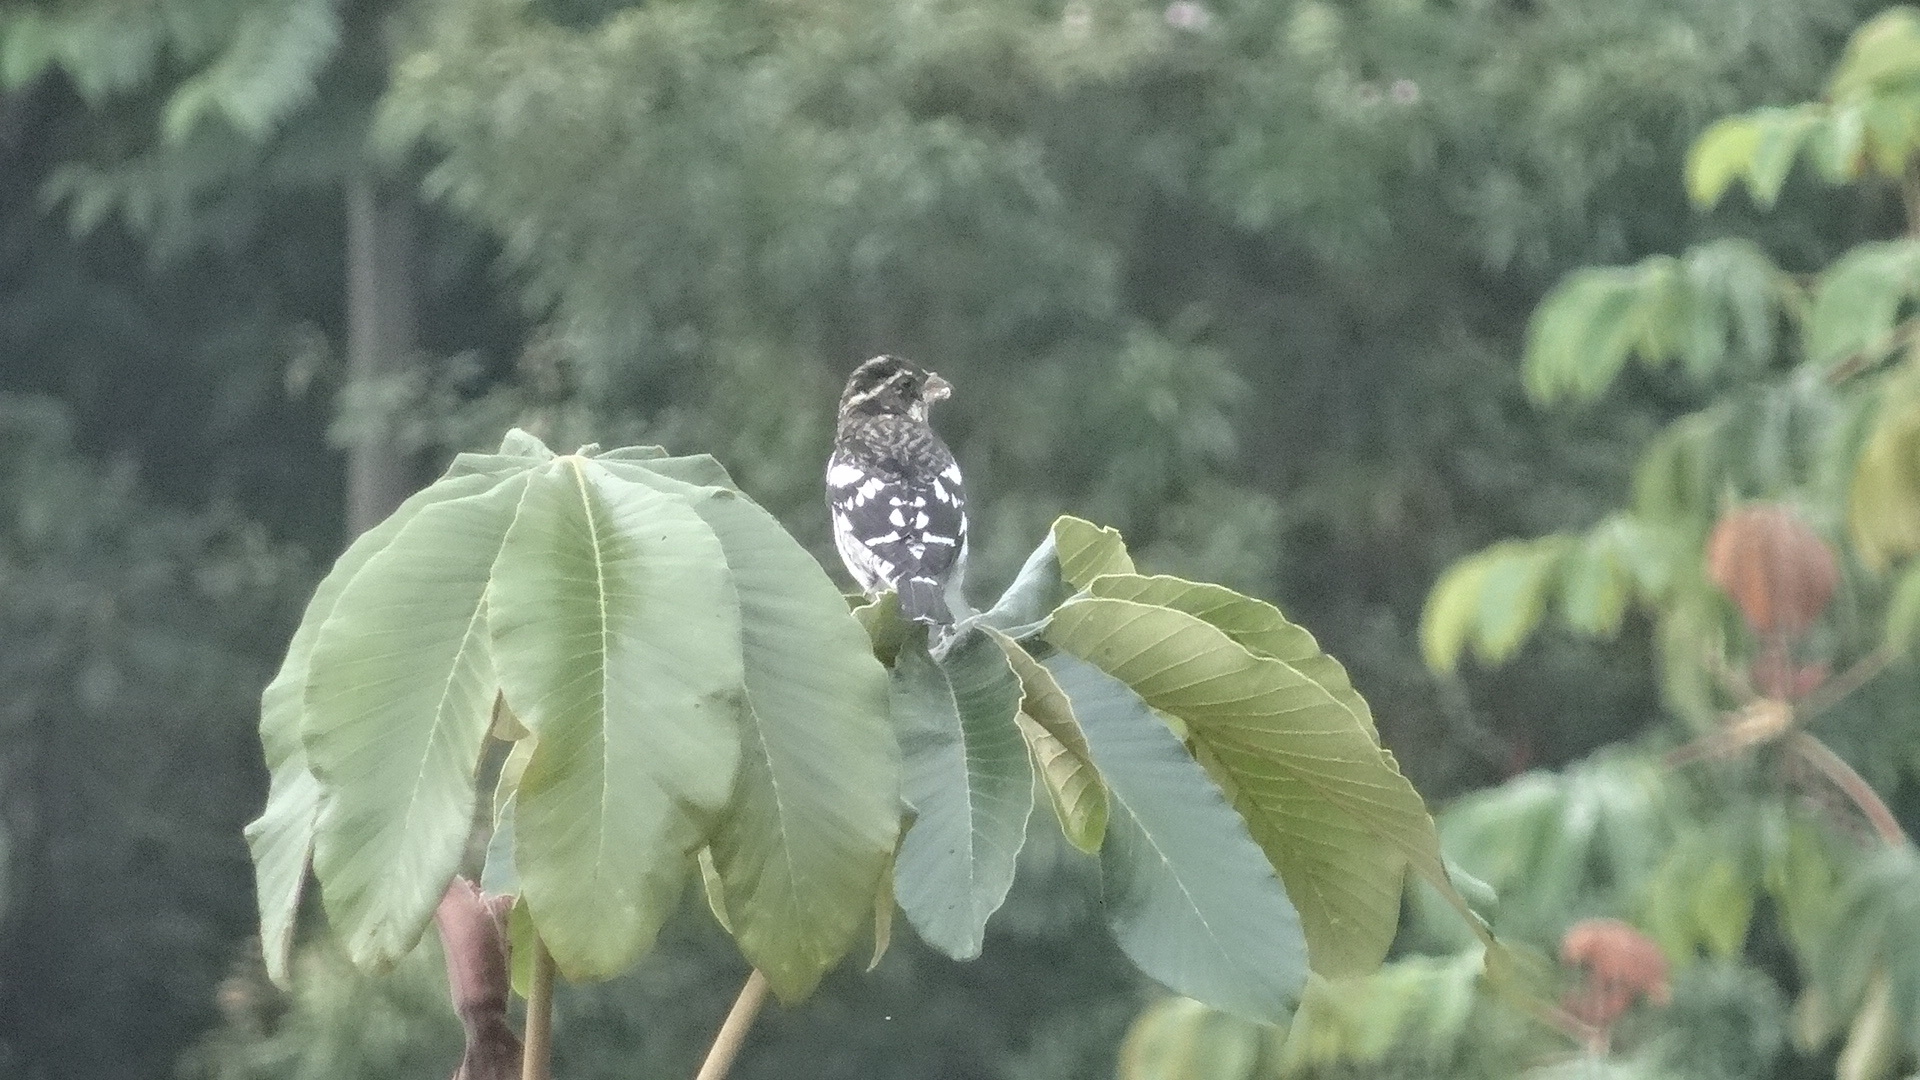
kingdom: Animalia
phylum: Chordata
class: Aves
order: Passeriformes
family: Cardinalidae
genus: Pheucticus
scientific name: Pheucticus ludovicianus
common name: Rose-breasted grosbeak
